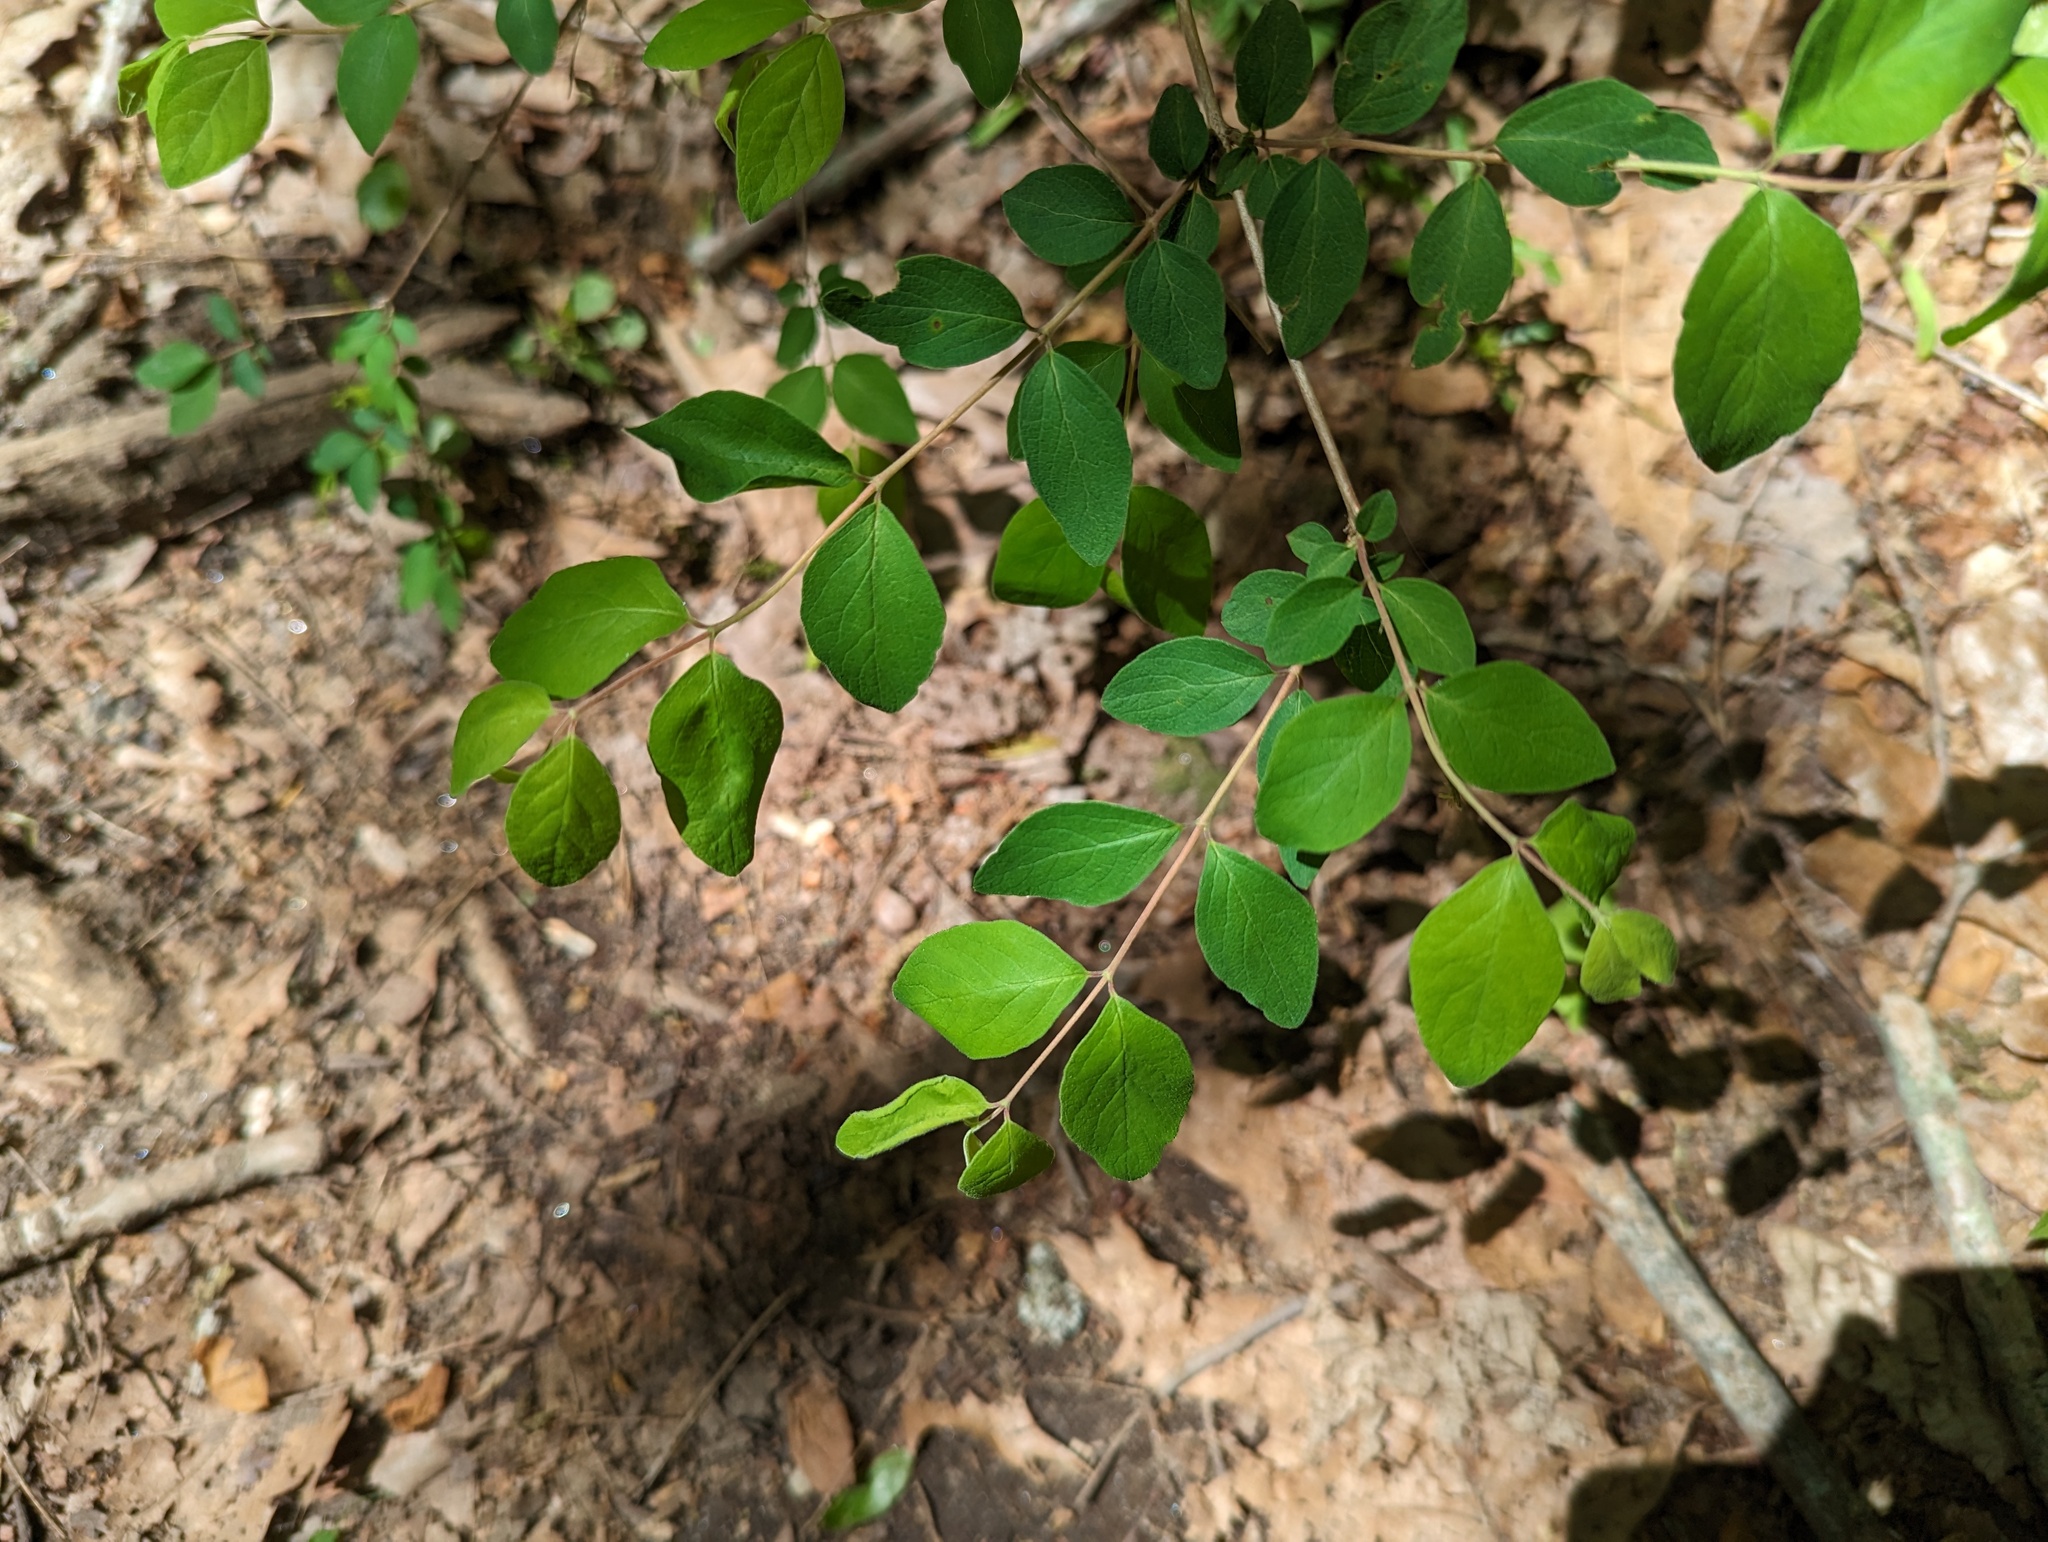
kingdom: Plantae
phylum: Tracheophyta
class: Magnoliopsida
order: Dipsacales
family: Caprifoliaceae
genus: Symphoricarpos
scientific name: Symphoricarpos orbiculatus
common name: Coralberry
